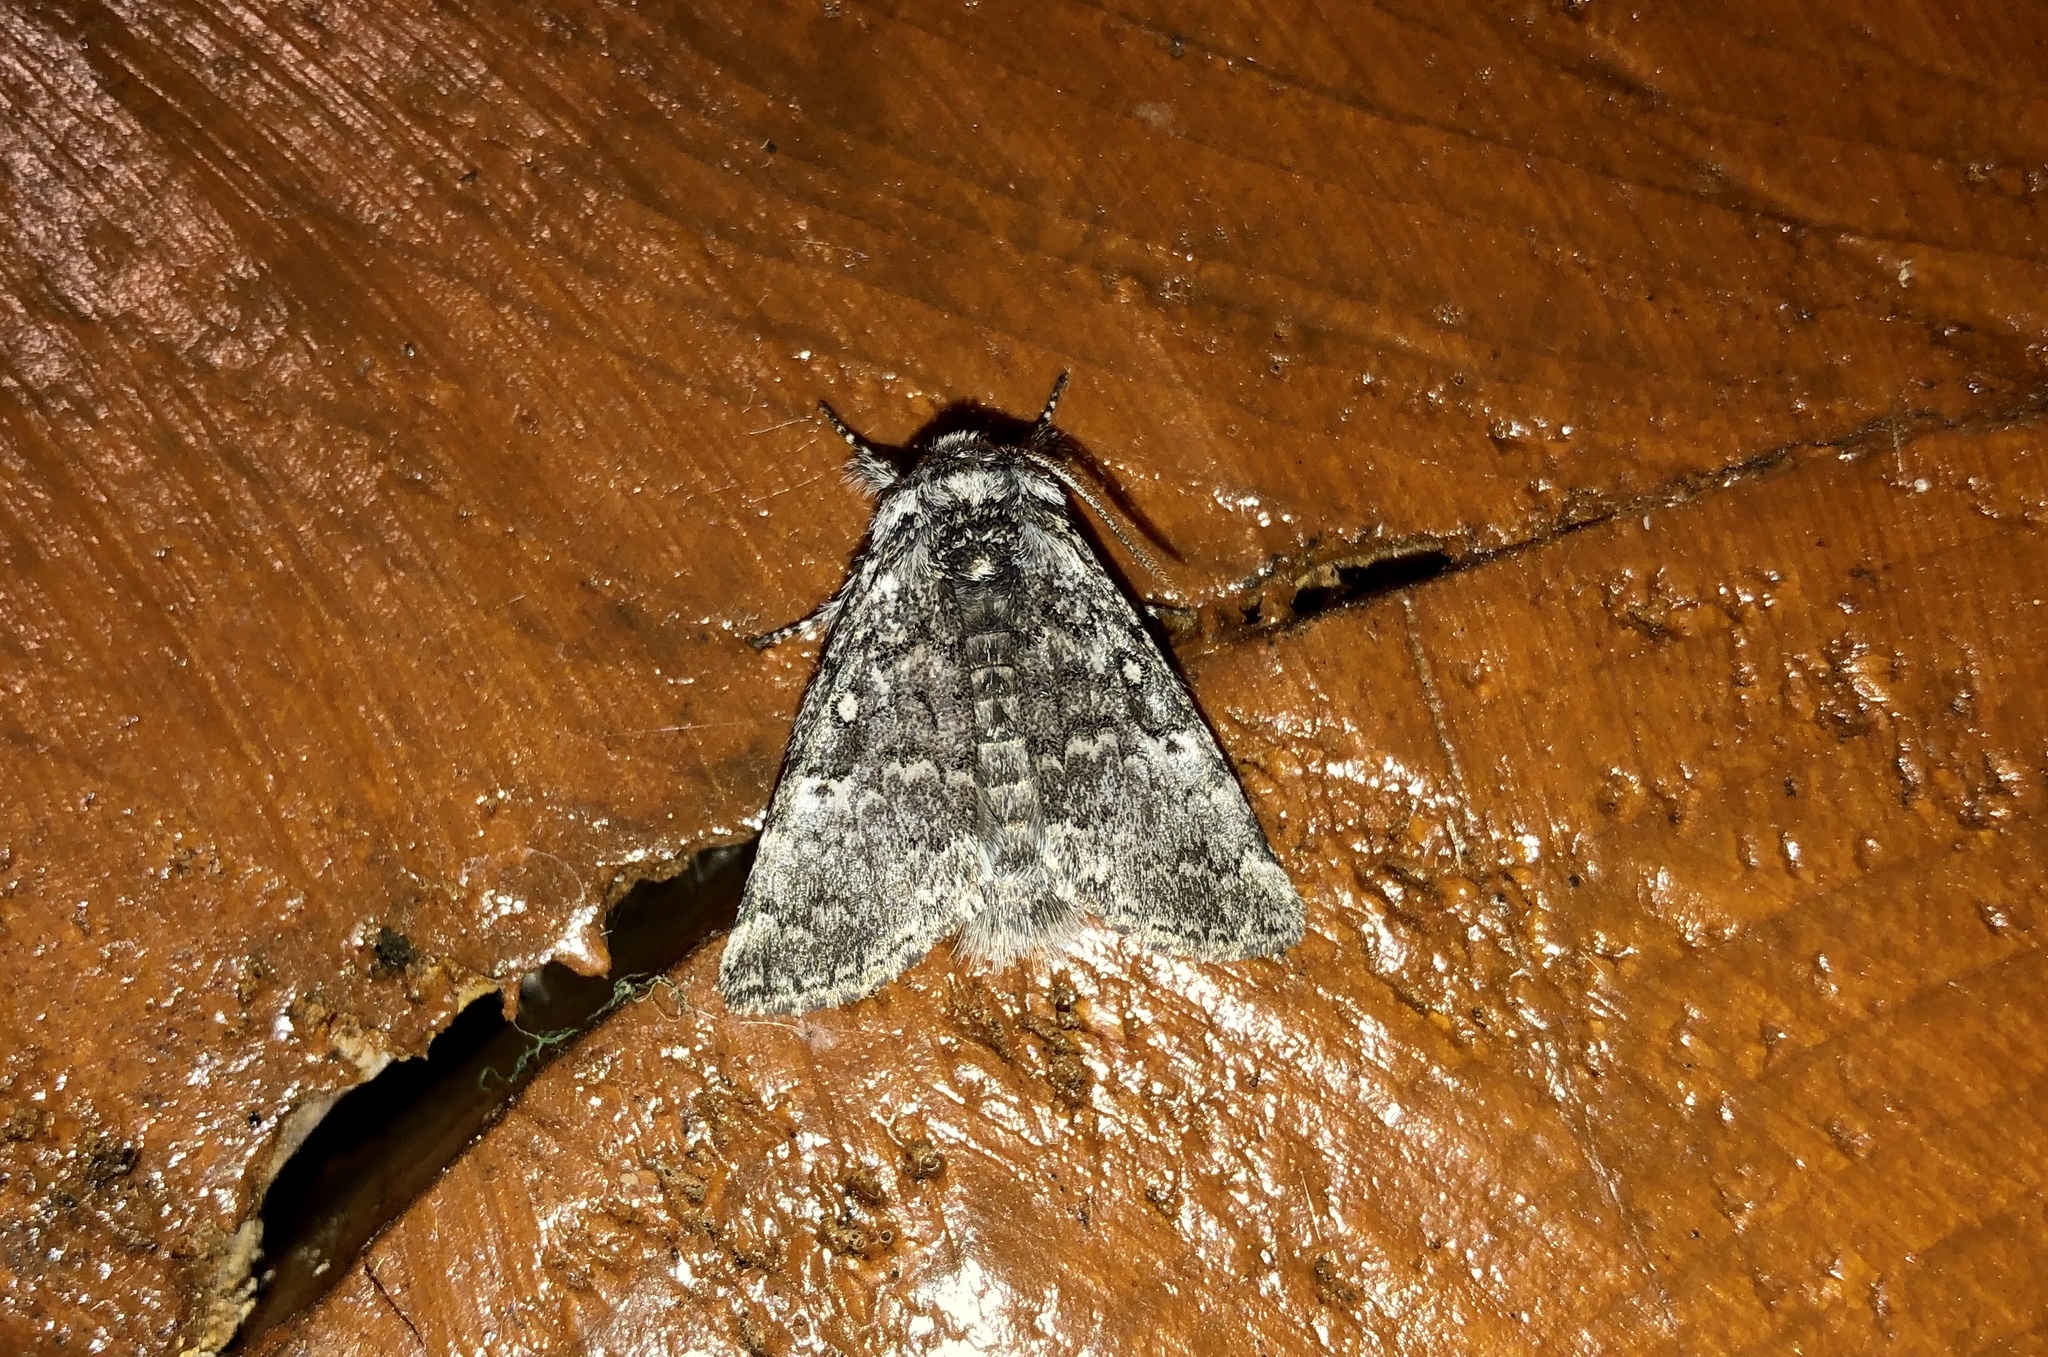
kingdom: Animalia
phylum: Arthropoda
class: Insecta
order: Lepidoptera
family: Noctuidae
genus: Colocasia
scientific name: Colocasia propinquilinea
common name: Close-banded demas
